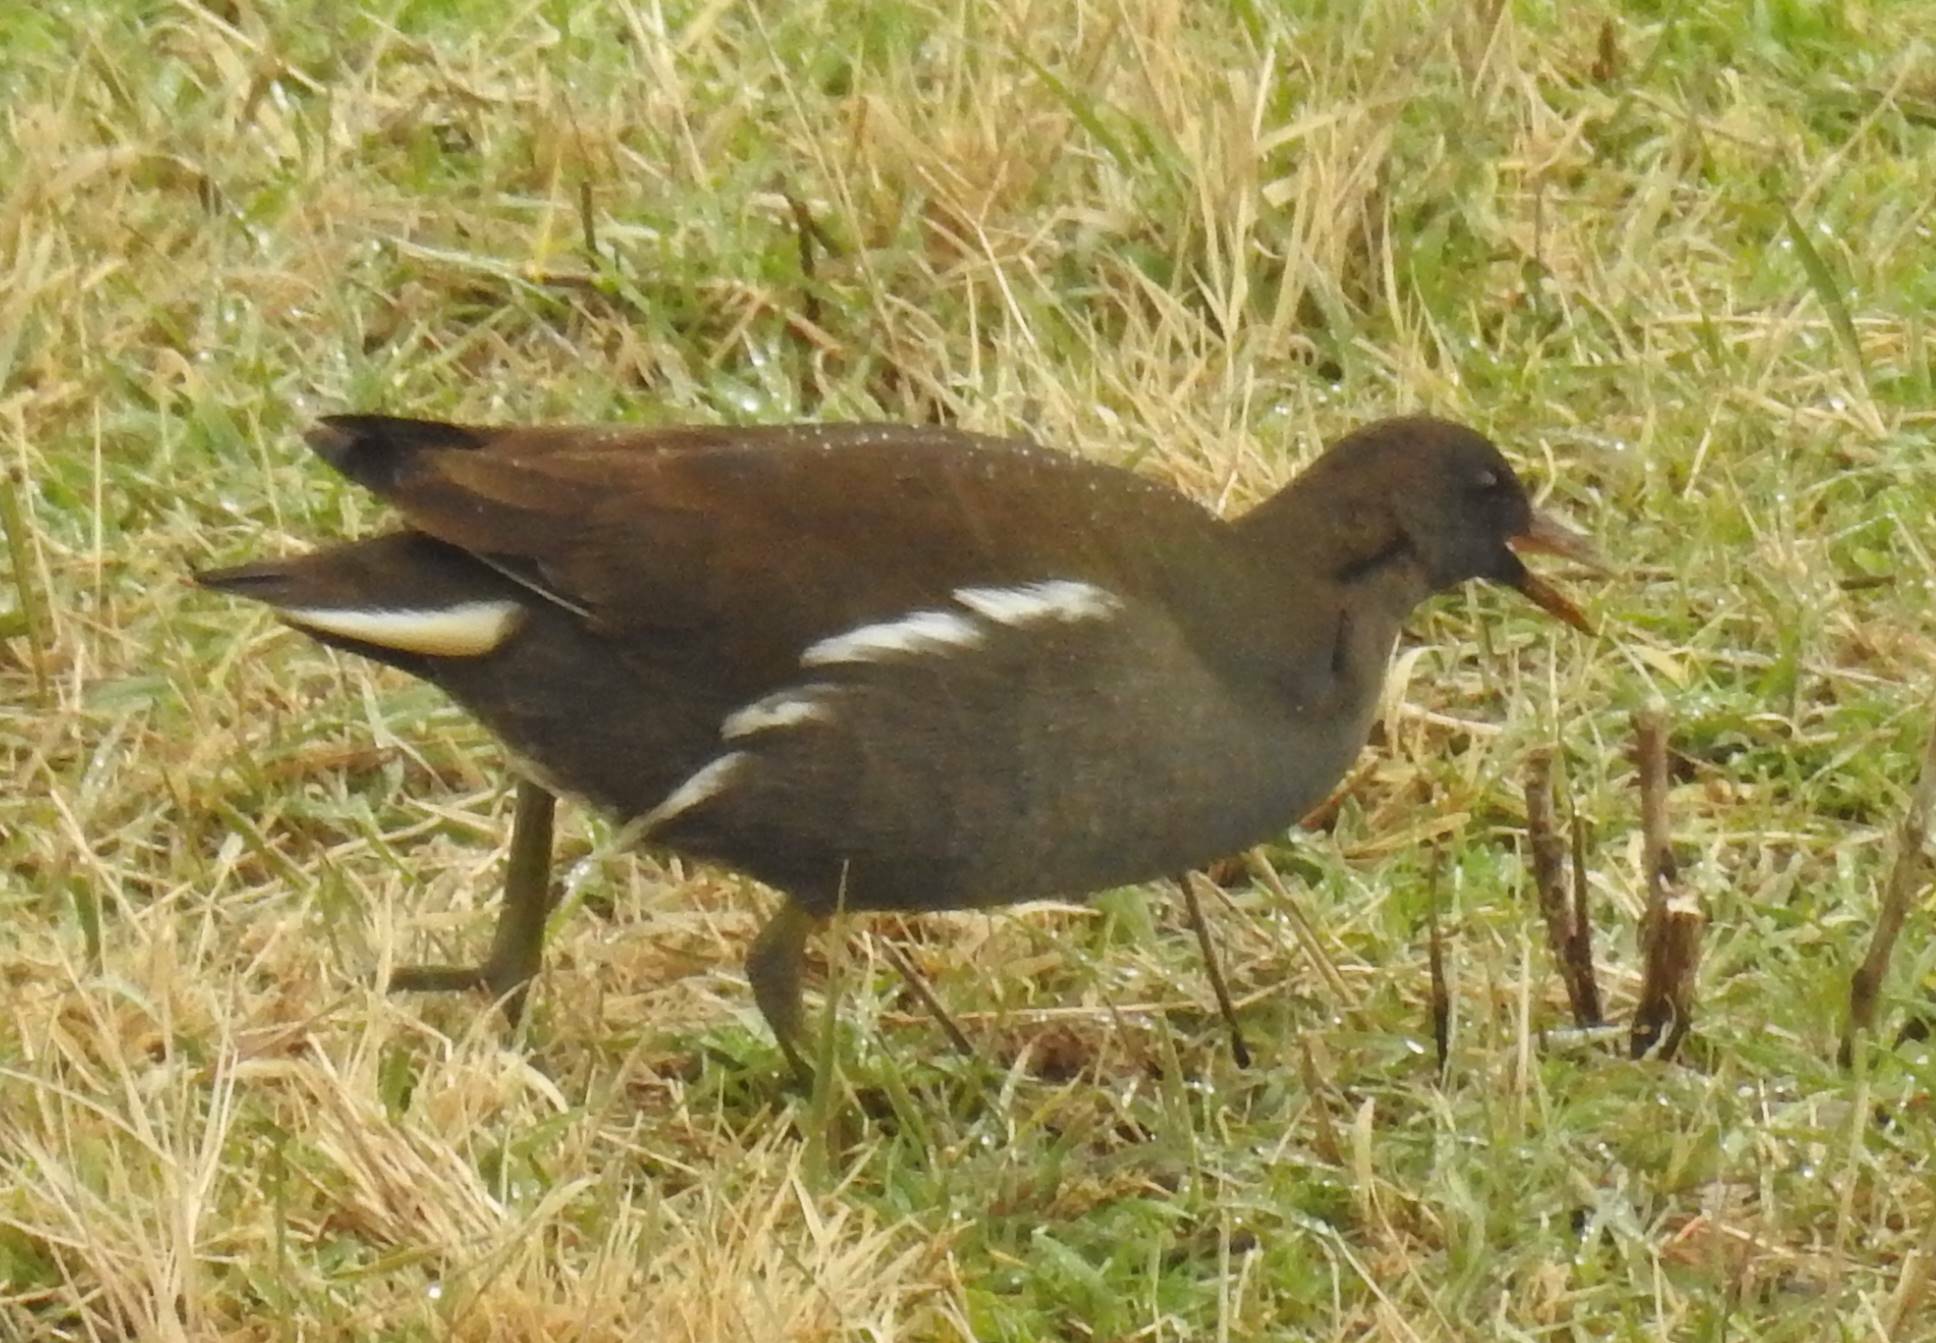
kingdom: Animalia
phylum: Chordata
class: Aves
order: Gruiformes
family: Rallidae
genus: Gallinula
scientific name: Gallinula chloropus
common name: Common moorhen
